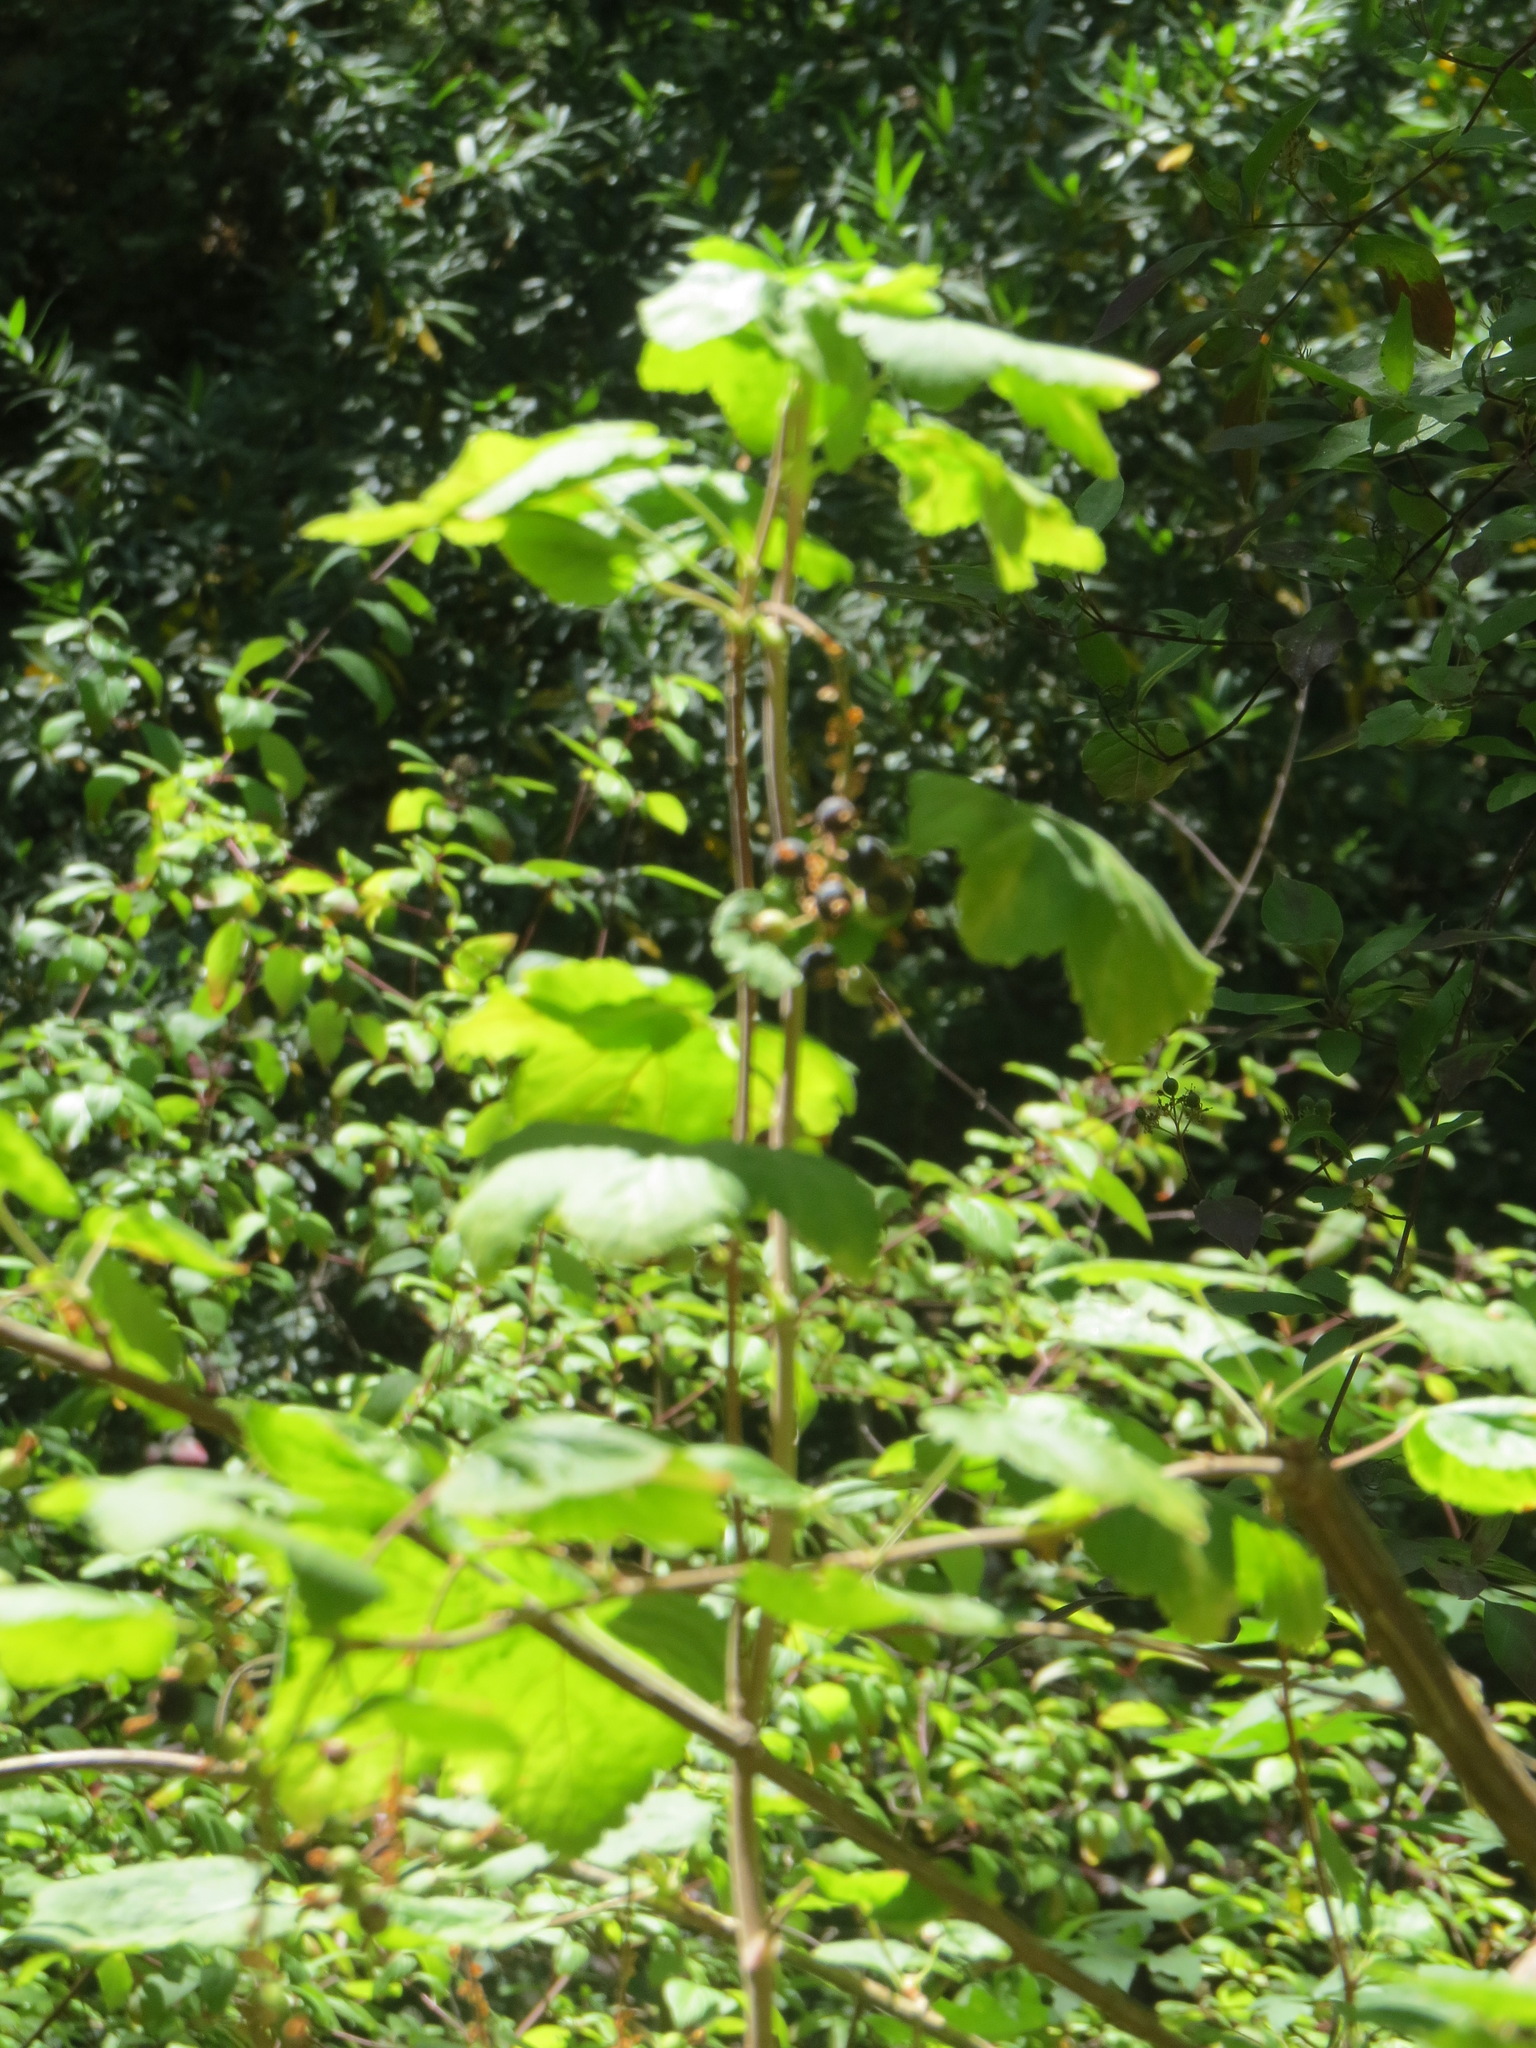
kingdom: Plantae
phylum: Tracheophyta
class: Magnoliopsida
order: Saxifragales
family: Grossulariaceae
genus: Ribes
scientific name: Ribes sanguineum
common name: Flowering currant
